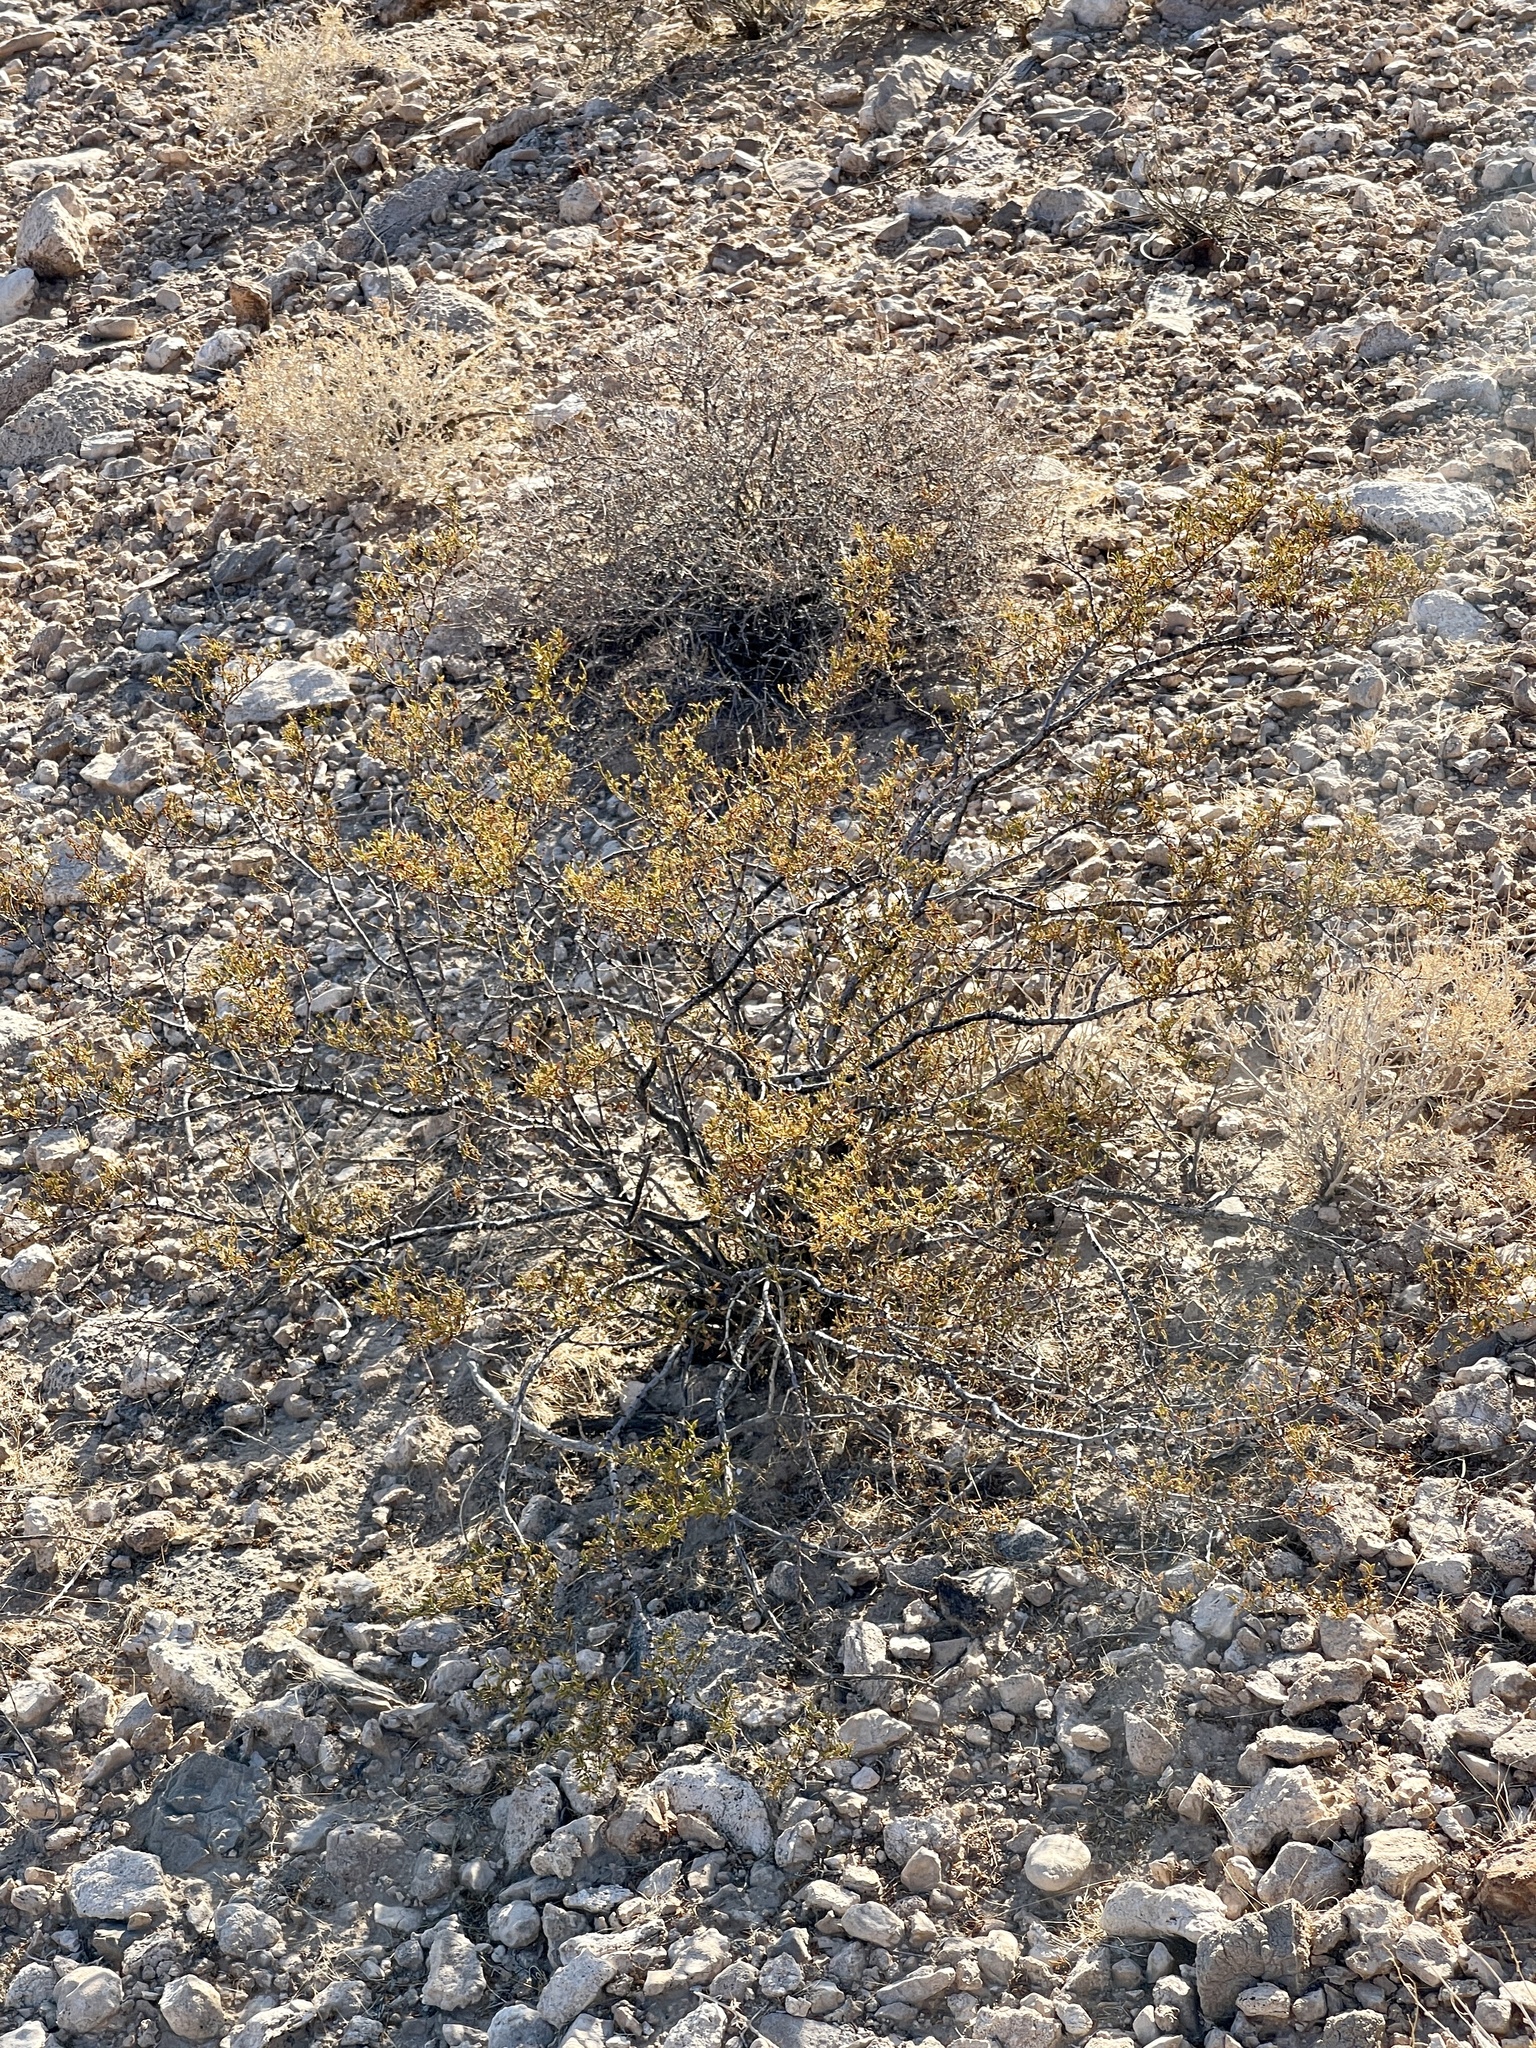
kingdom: Plantae
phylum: Tracheophyta
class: Magnoliopsida
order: Zygophyllales
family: Zygophyllaceae
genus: Larrea
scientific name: Larrea tridentata
